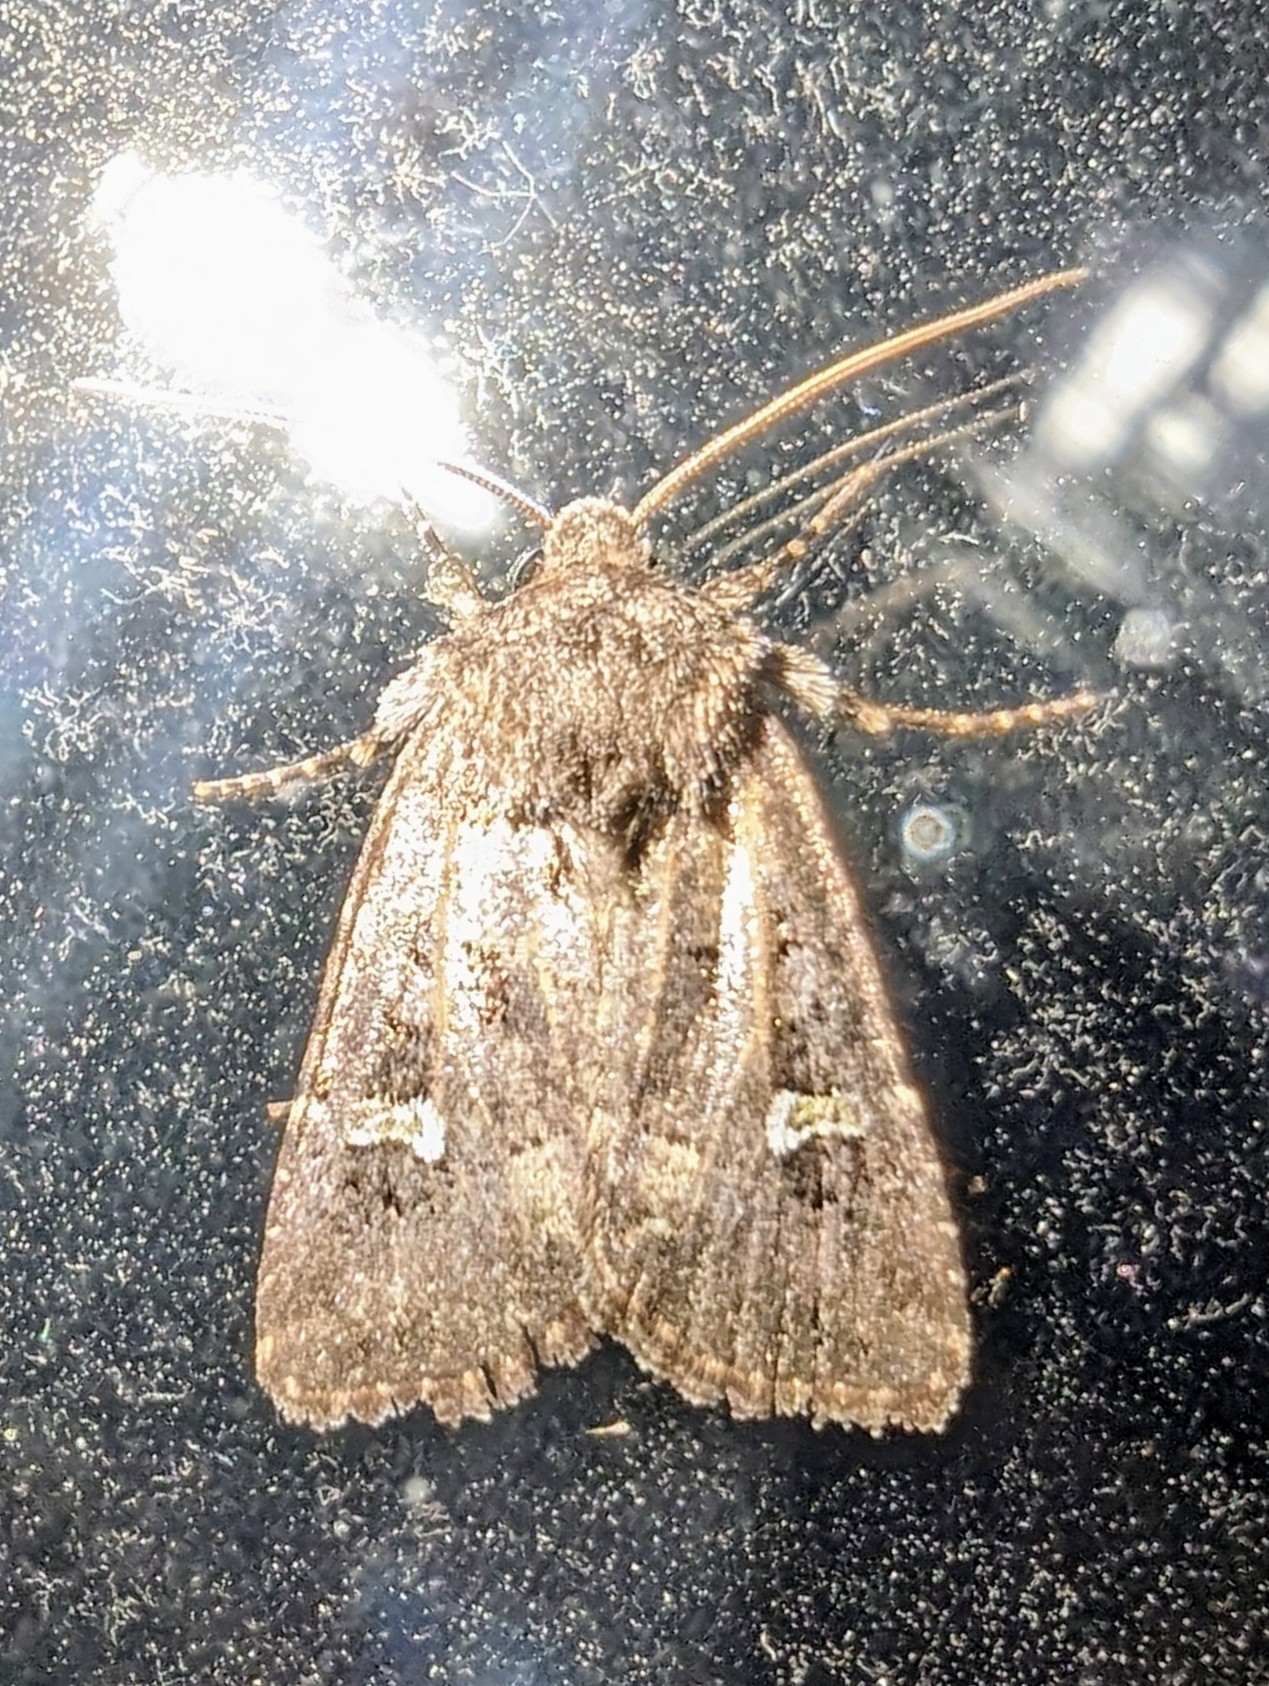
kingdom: Animalia
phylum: Arthropoda
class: Insecta
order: Lepidoptera
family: Noctuidae
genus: Lacinipolia
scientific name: Lacinipolia renigera
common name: Kidney-spotted minor
